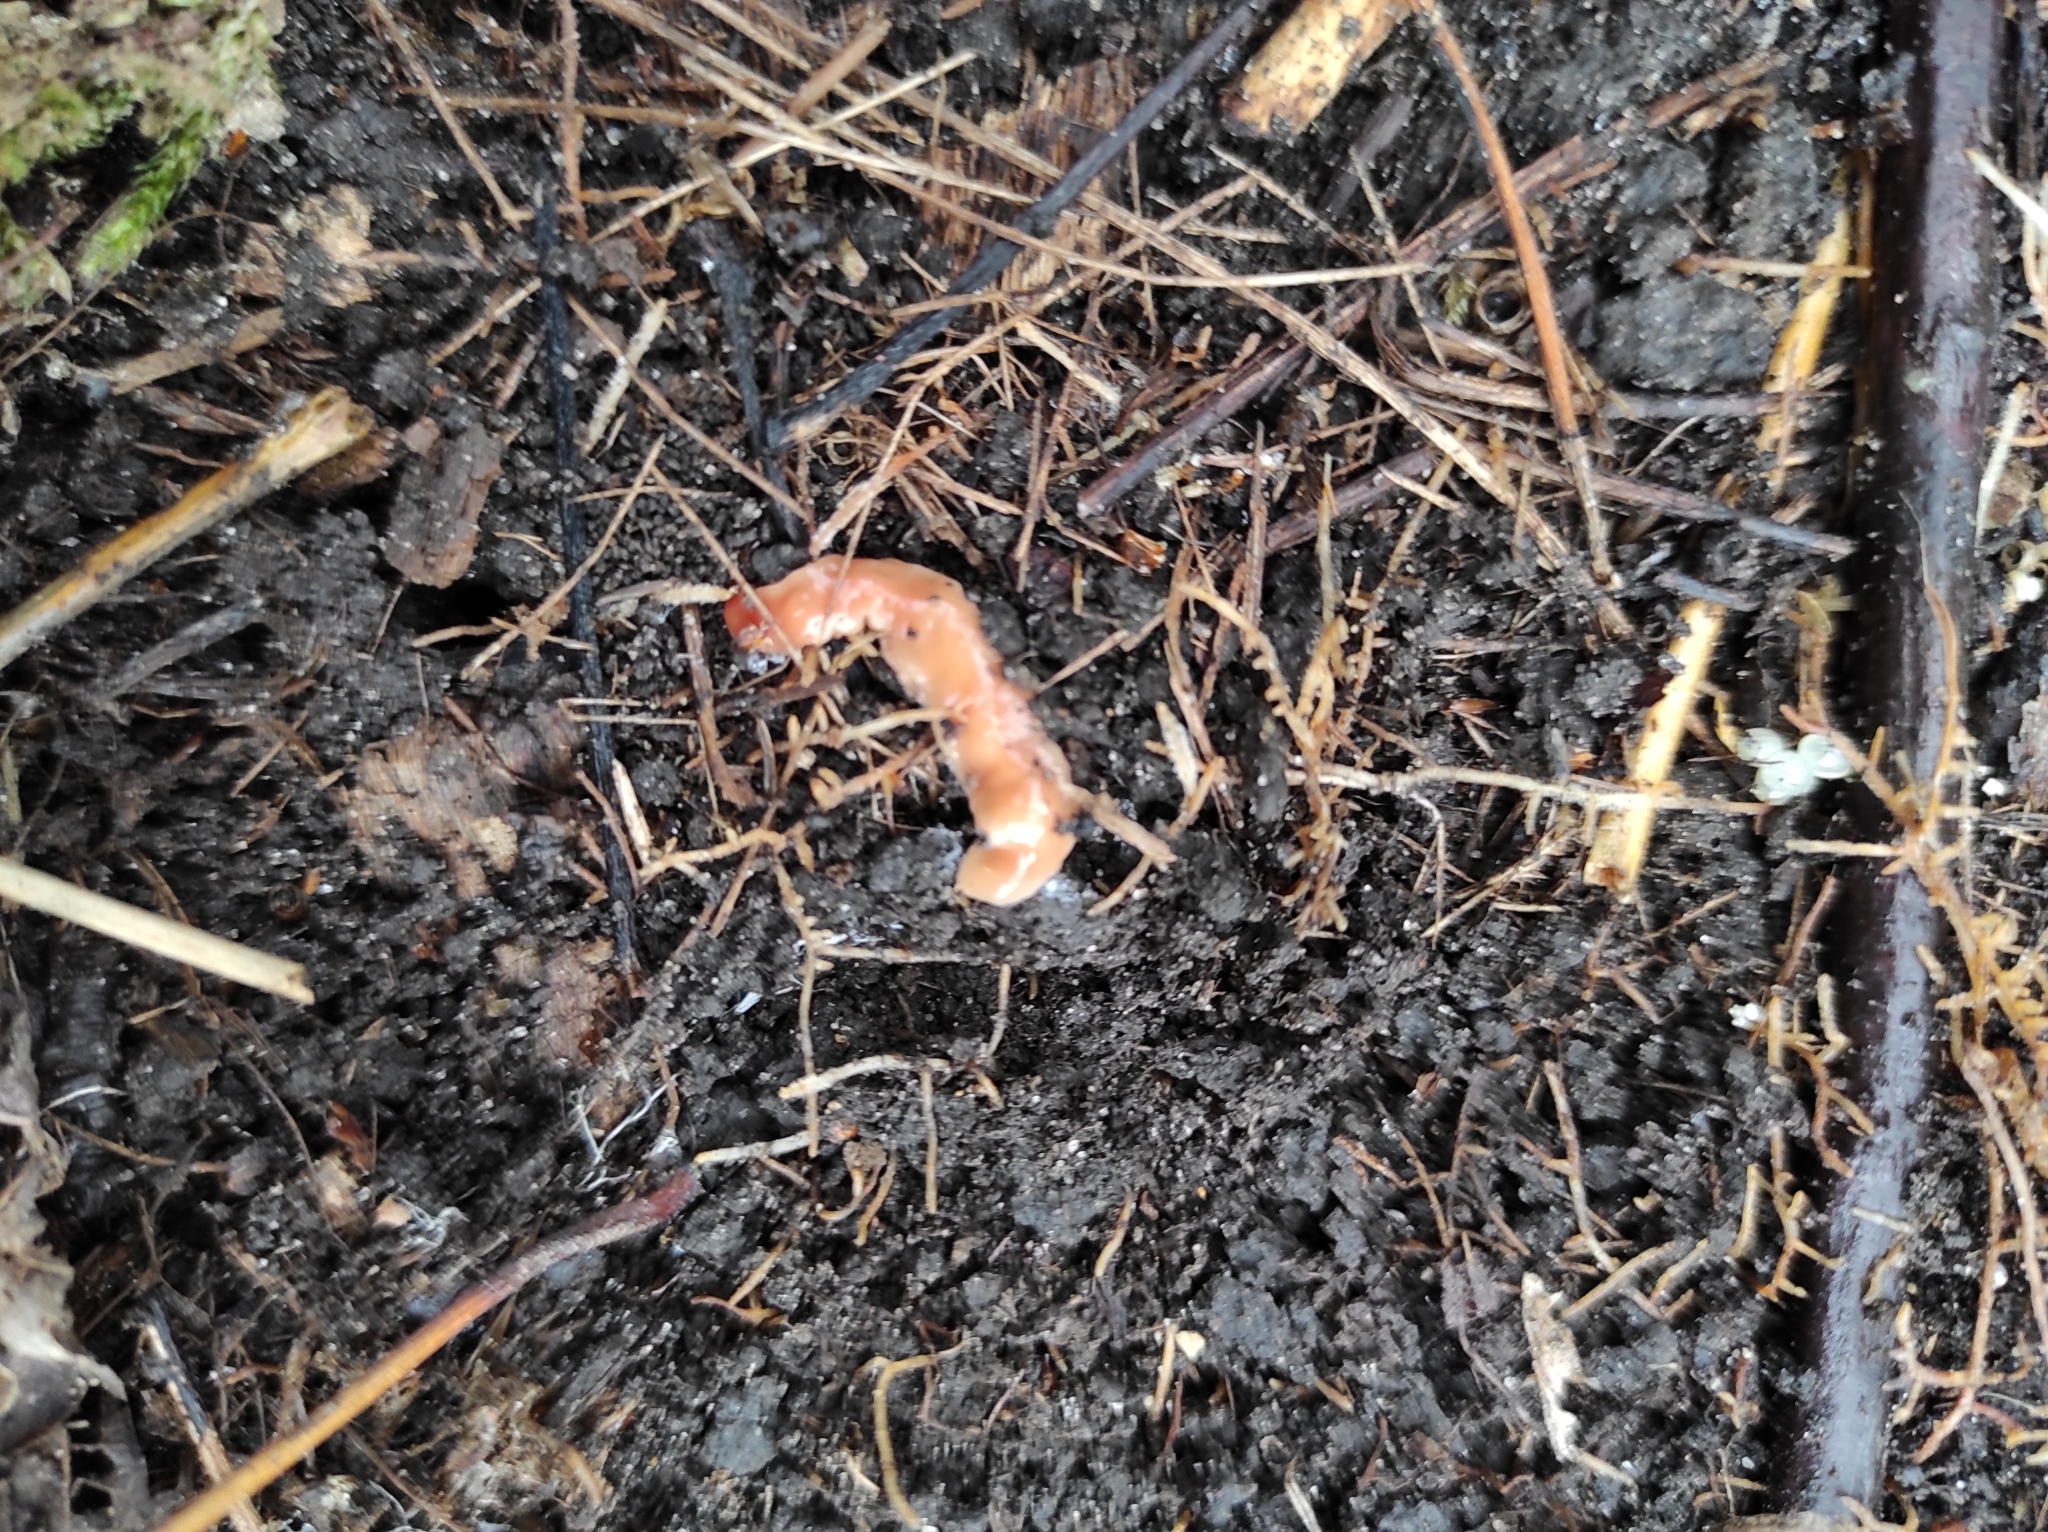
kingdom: Animalia
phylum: Platyhelminthes
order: Tricladida
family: Geoplanidae
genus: Australoplana
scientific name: Australoplana sanguinea
